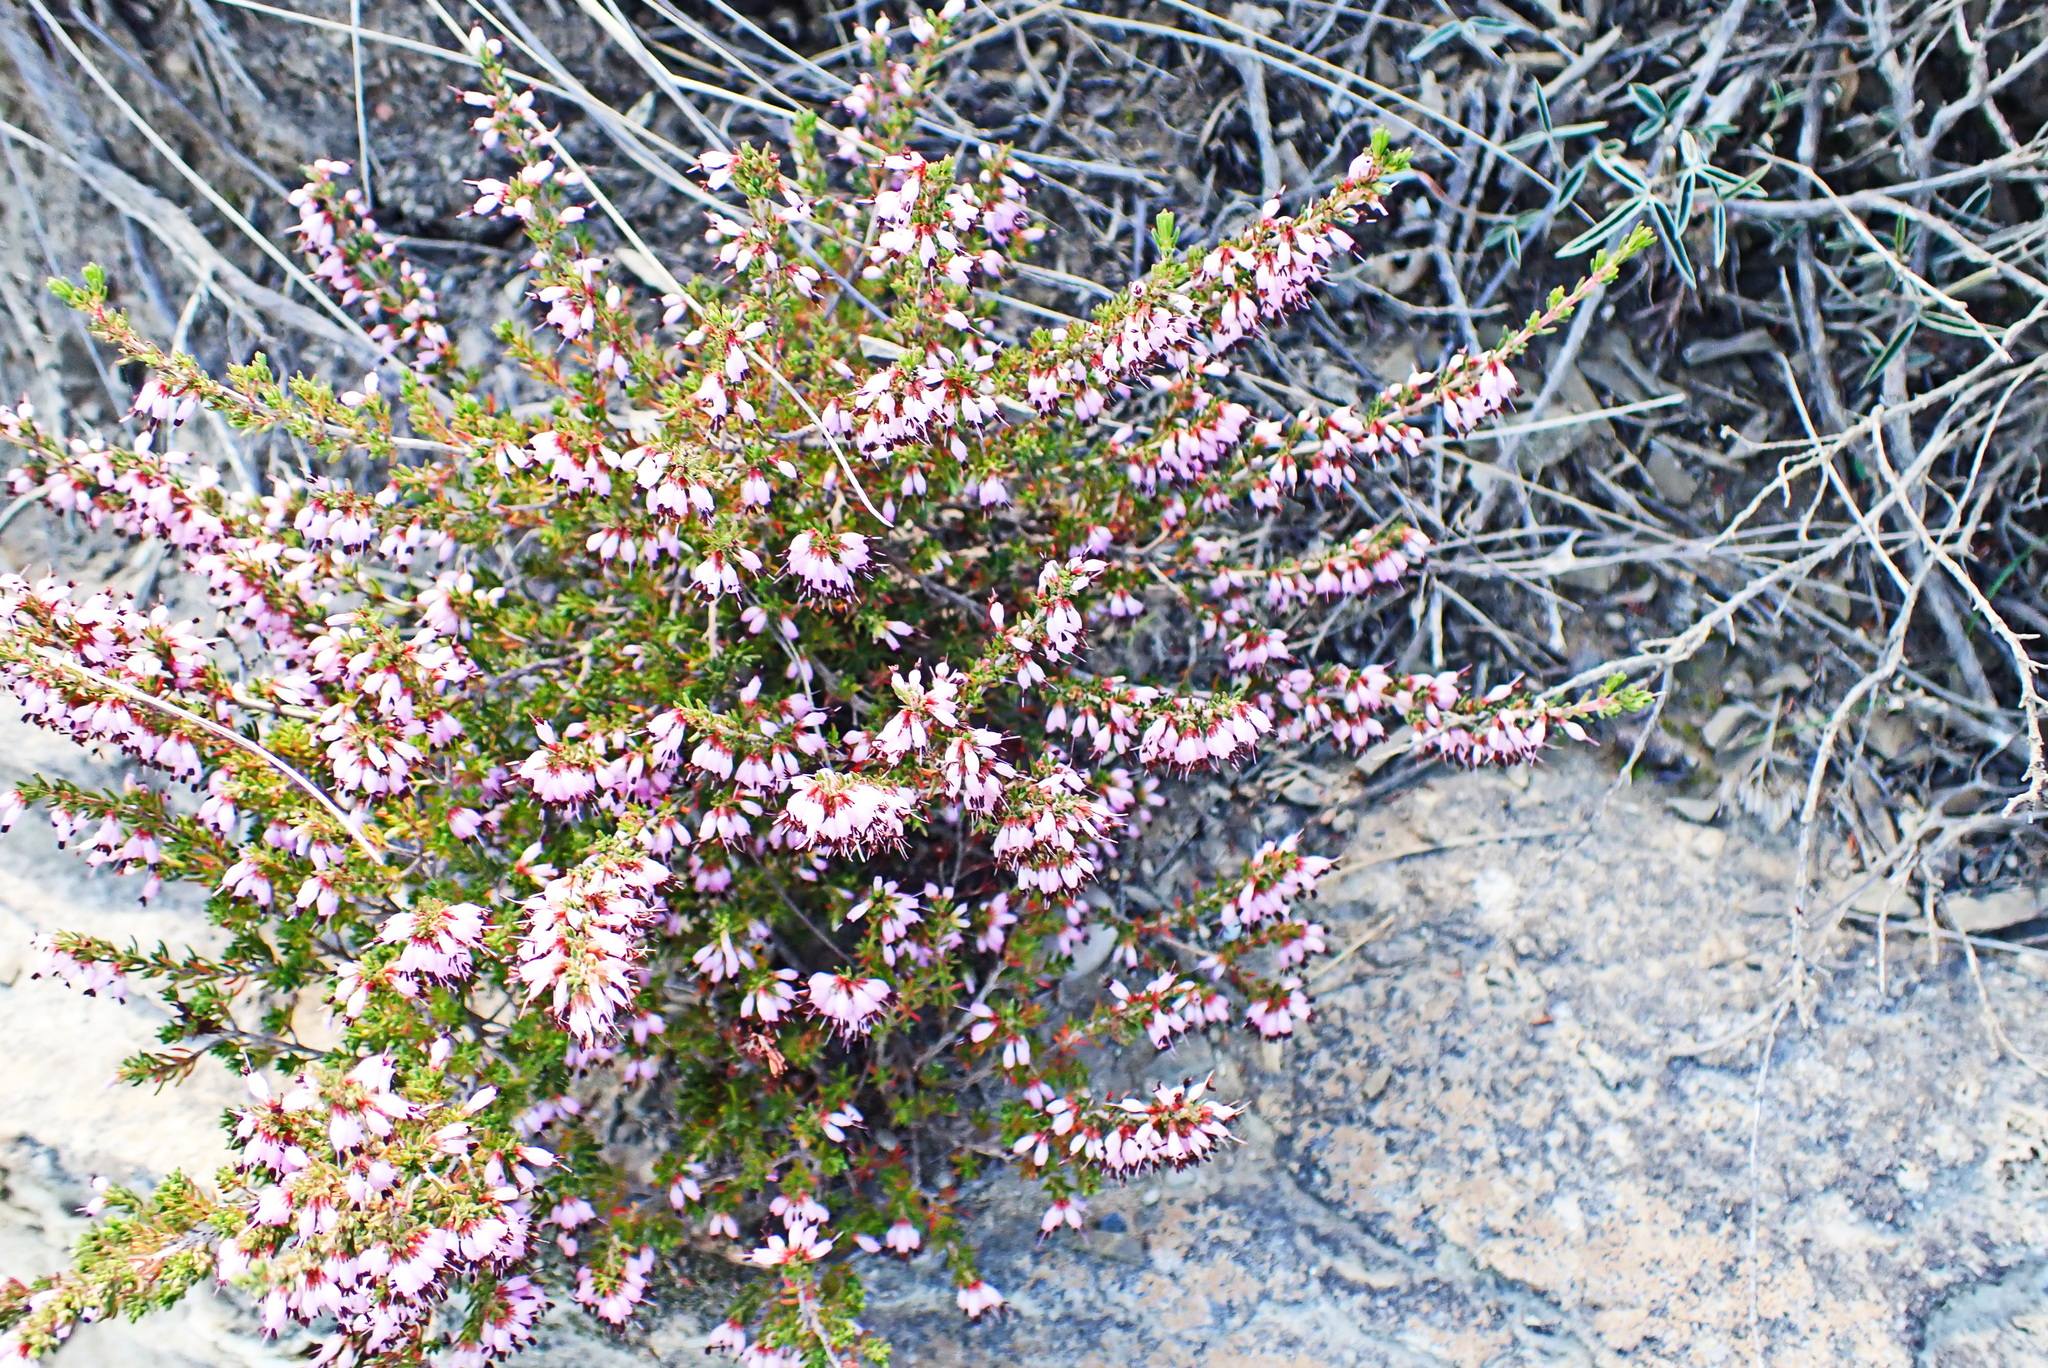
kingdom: Plantae
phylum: Tracheophyta
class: Magnoliopsida
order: Ericales
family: Ericaceae
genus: Erica
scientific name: Erica anguliger
